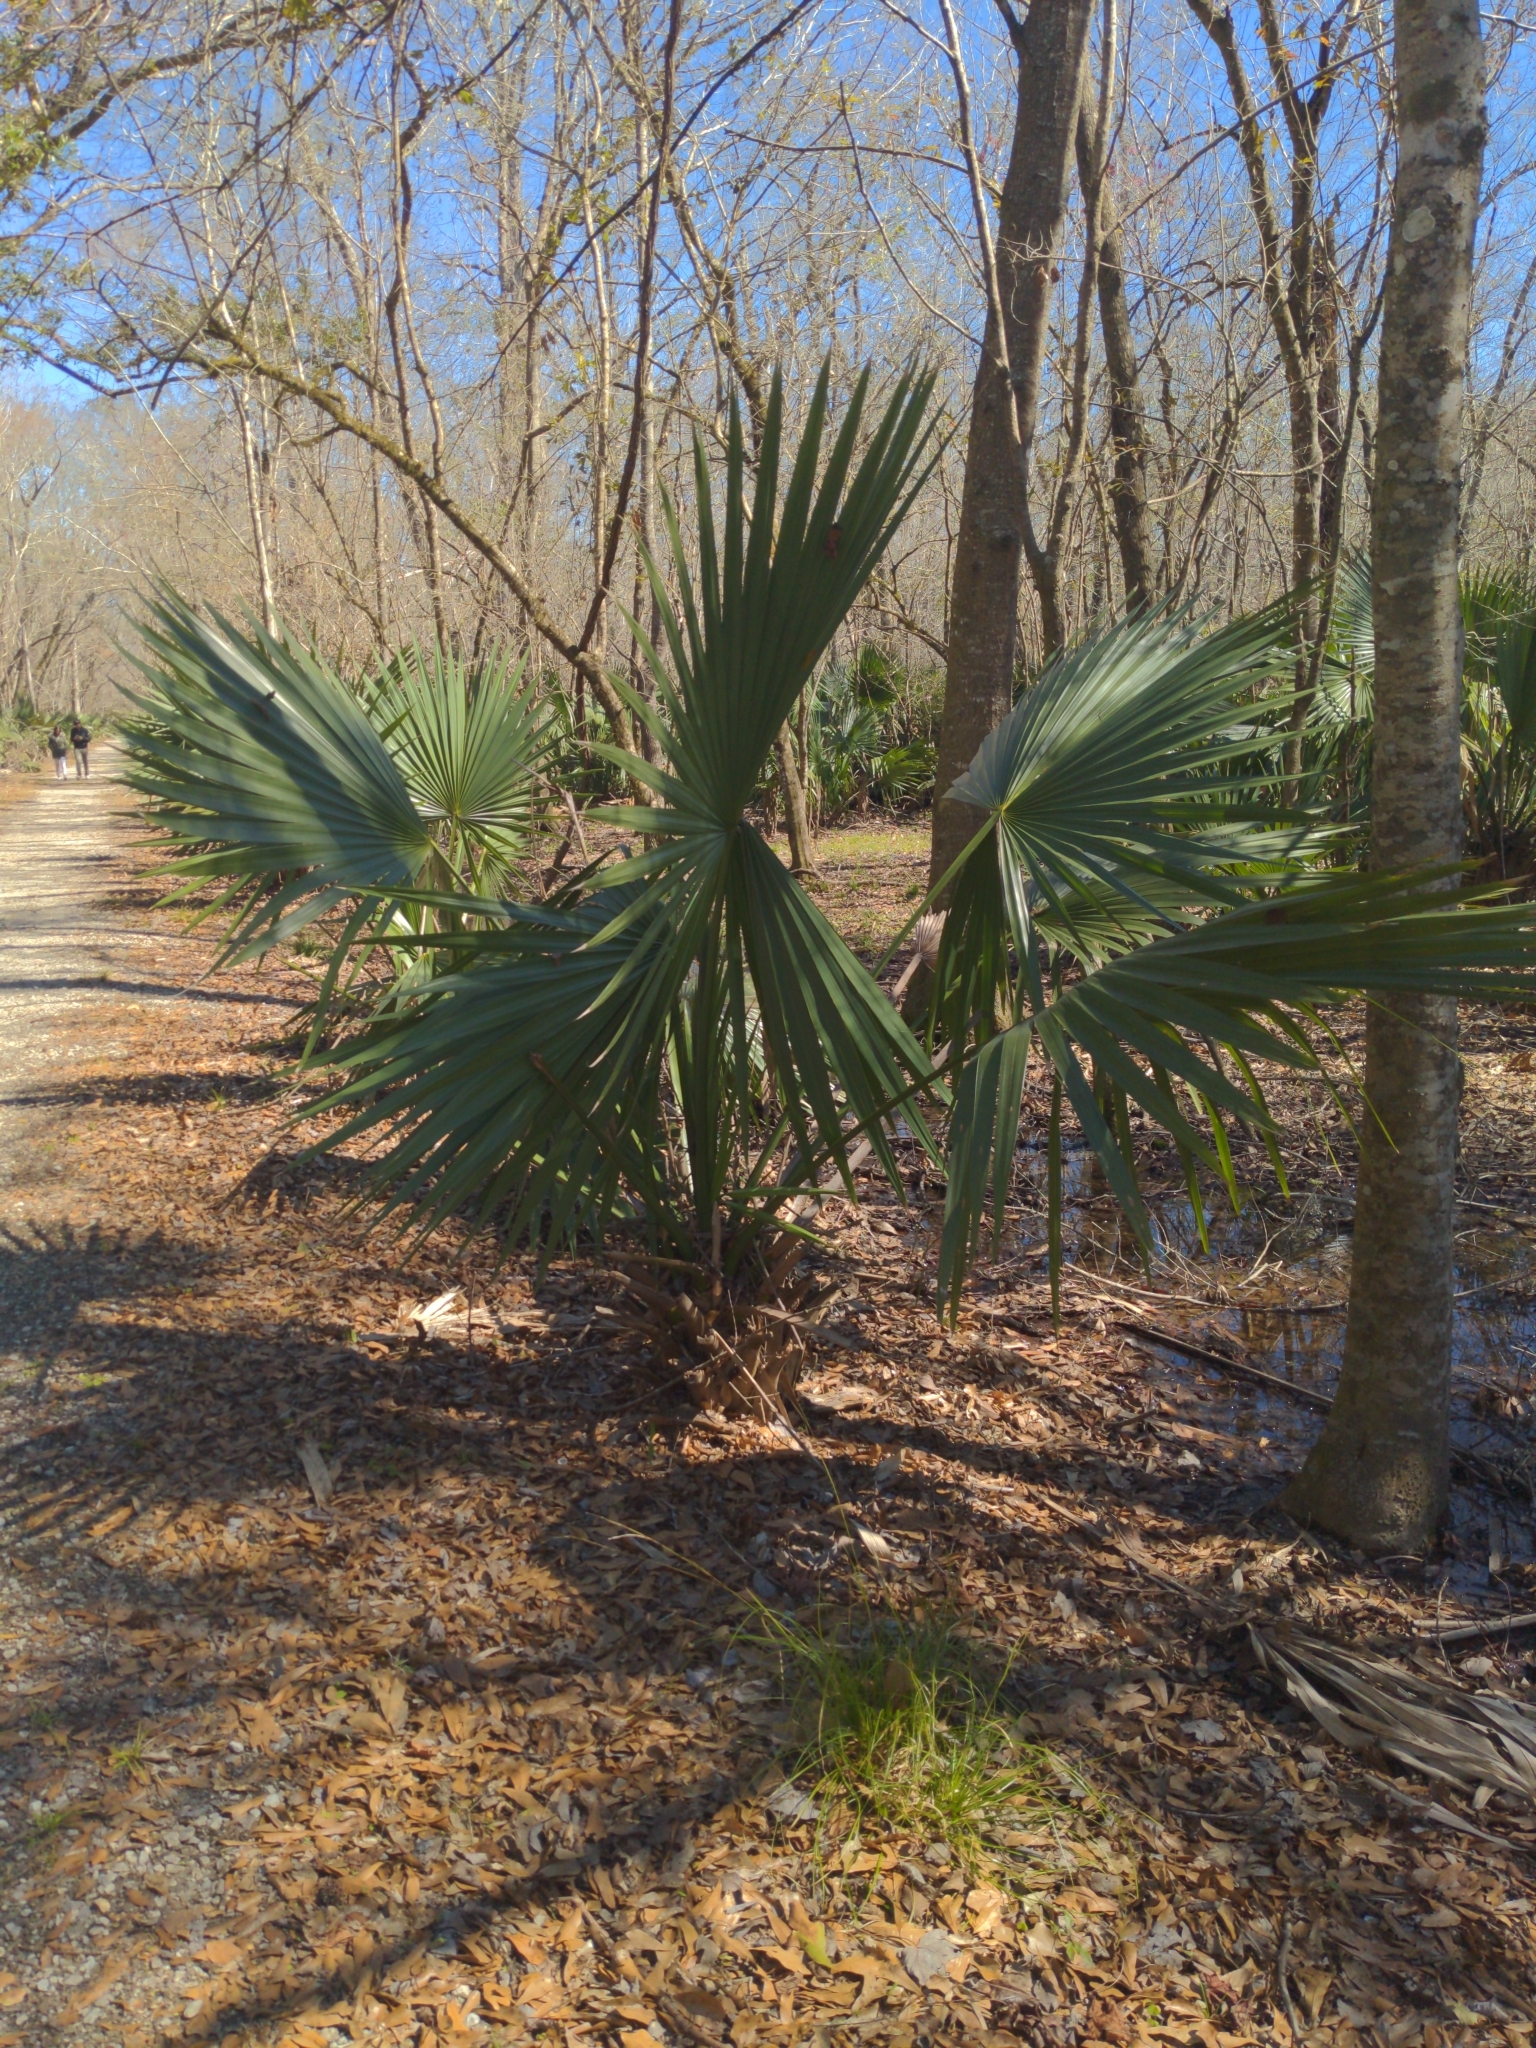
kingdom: Plantae
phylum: Tracheophyta
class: Liliopsida
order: Arecales
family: Arecaceae
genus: Sabal
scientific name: Sabal minor
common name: Dwarf palmetto
